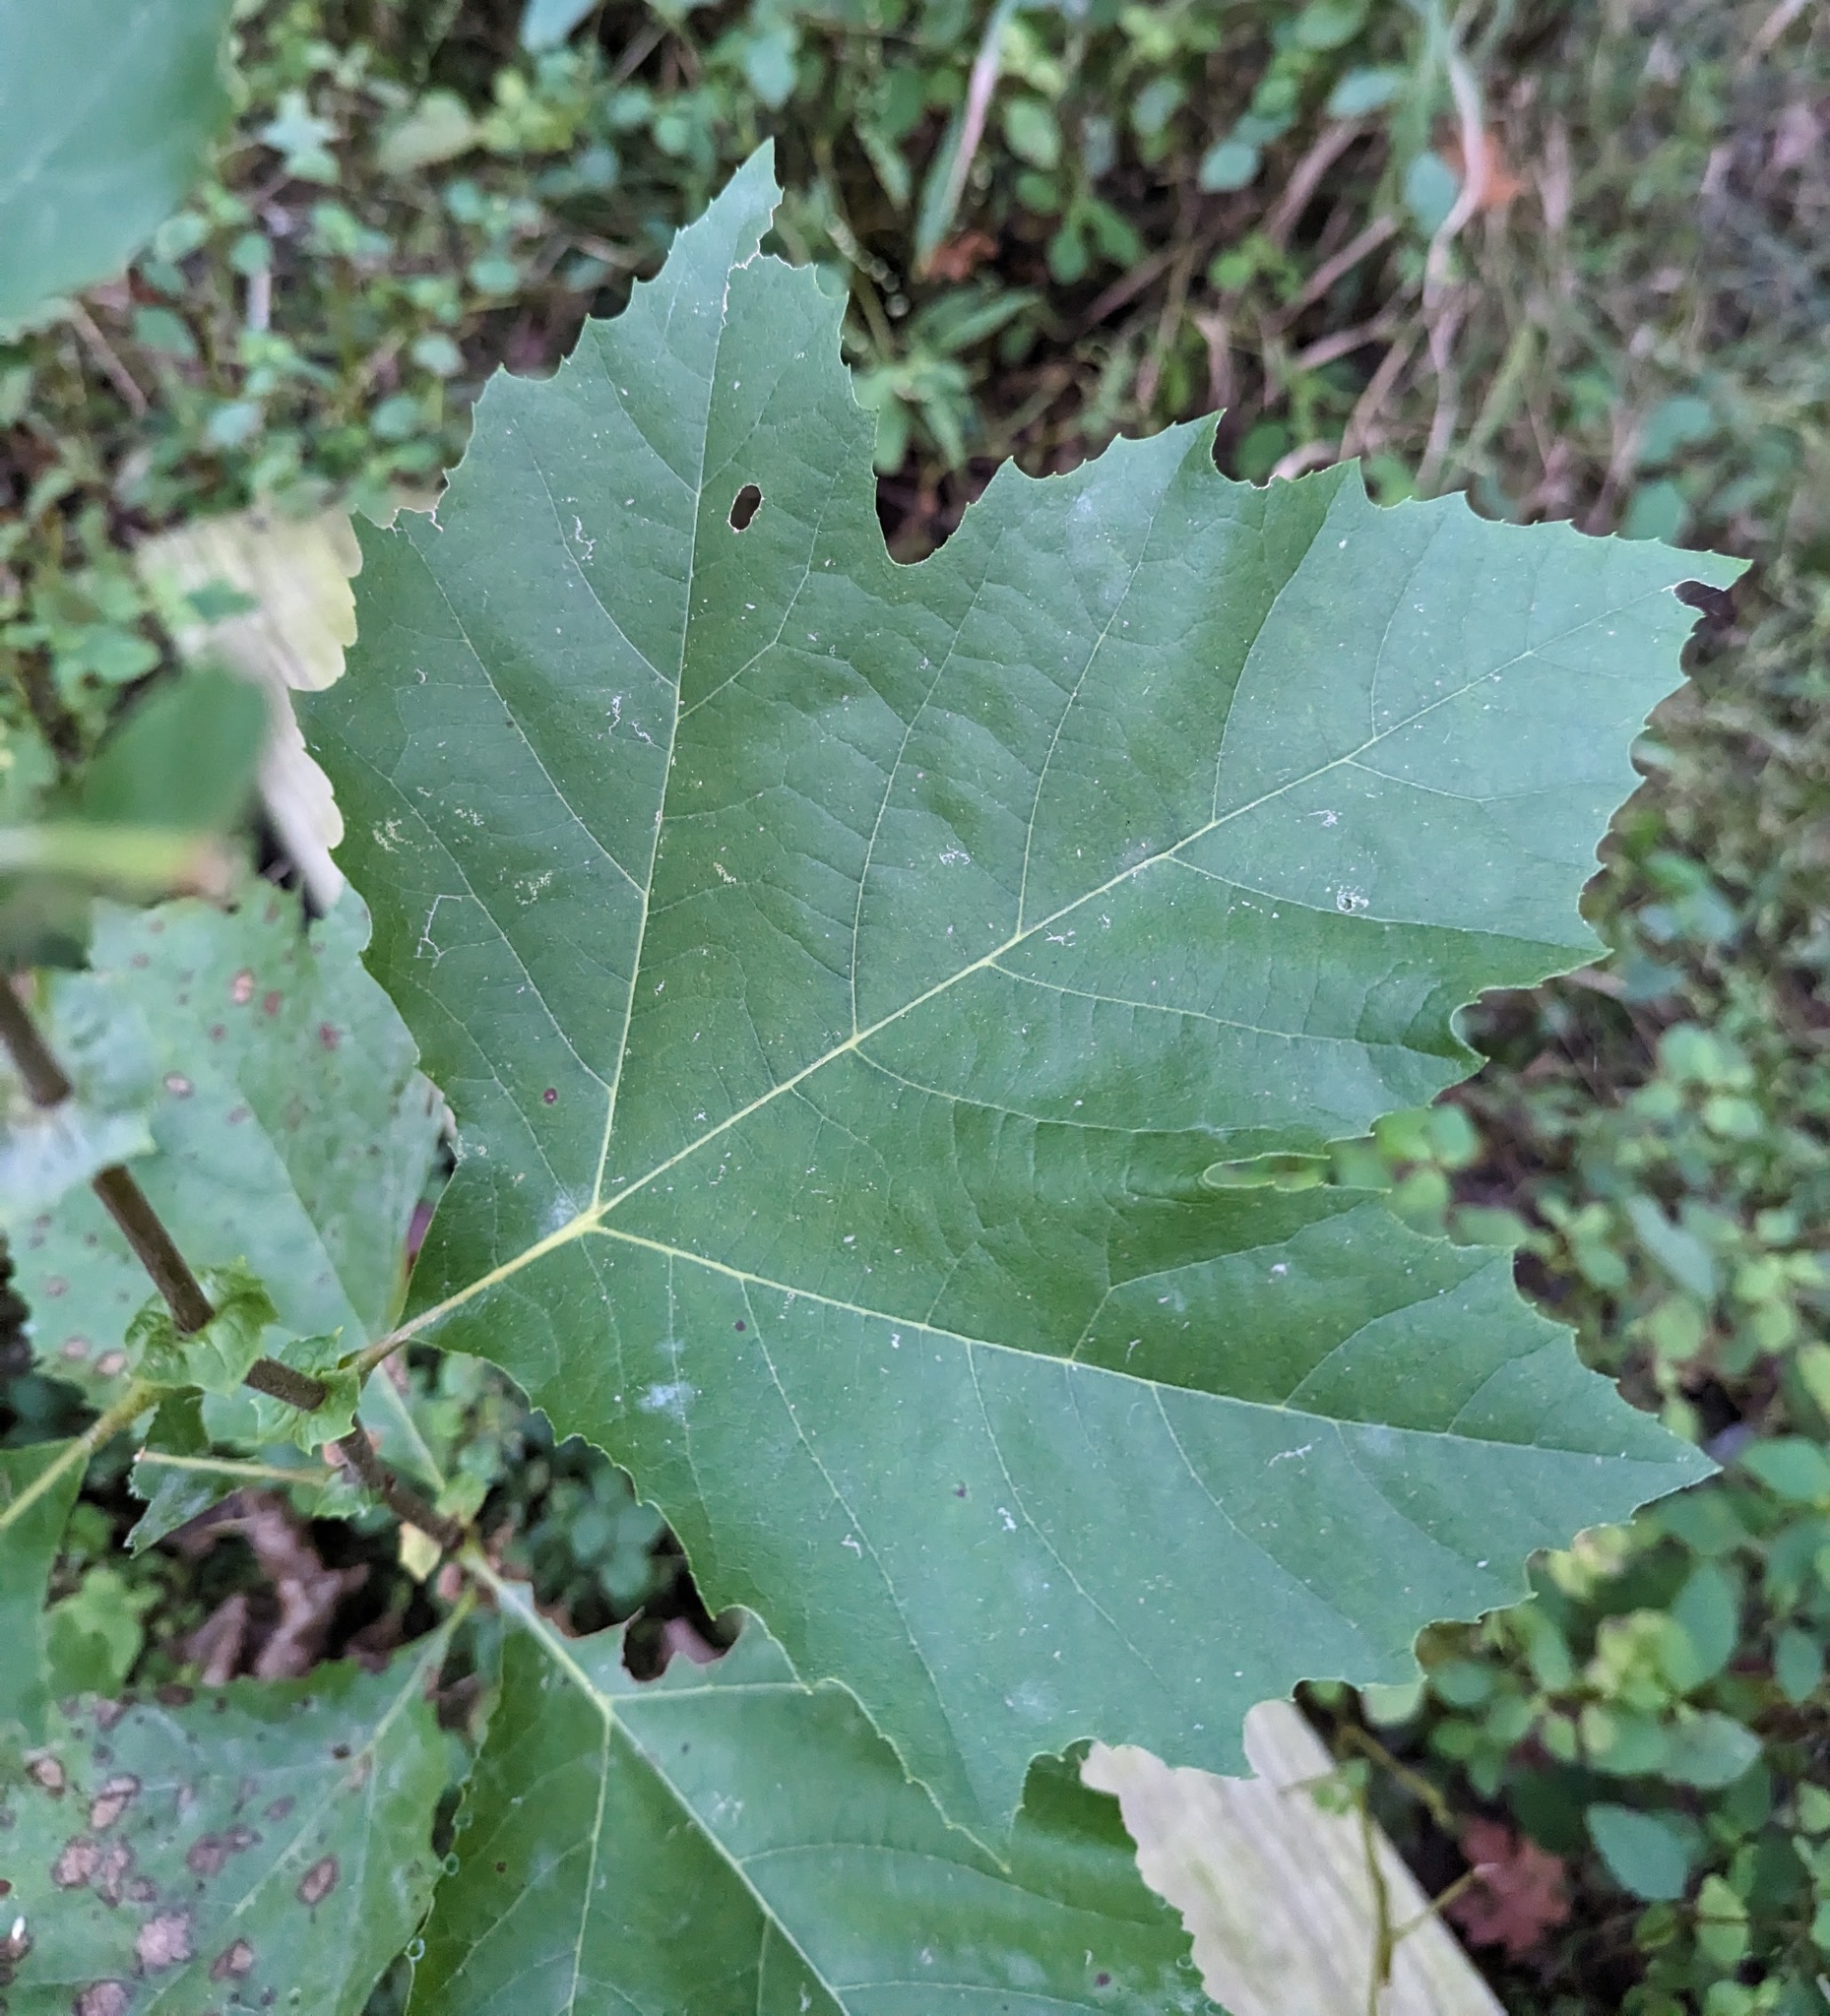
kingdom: Plantae
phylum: Tracheophyta
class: Magnoliopsida
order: Proteales
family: Platanaceae
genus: Platanus
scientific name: Platanus occidentalis
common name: American sycamore
